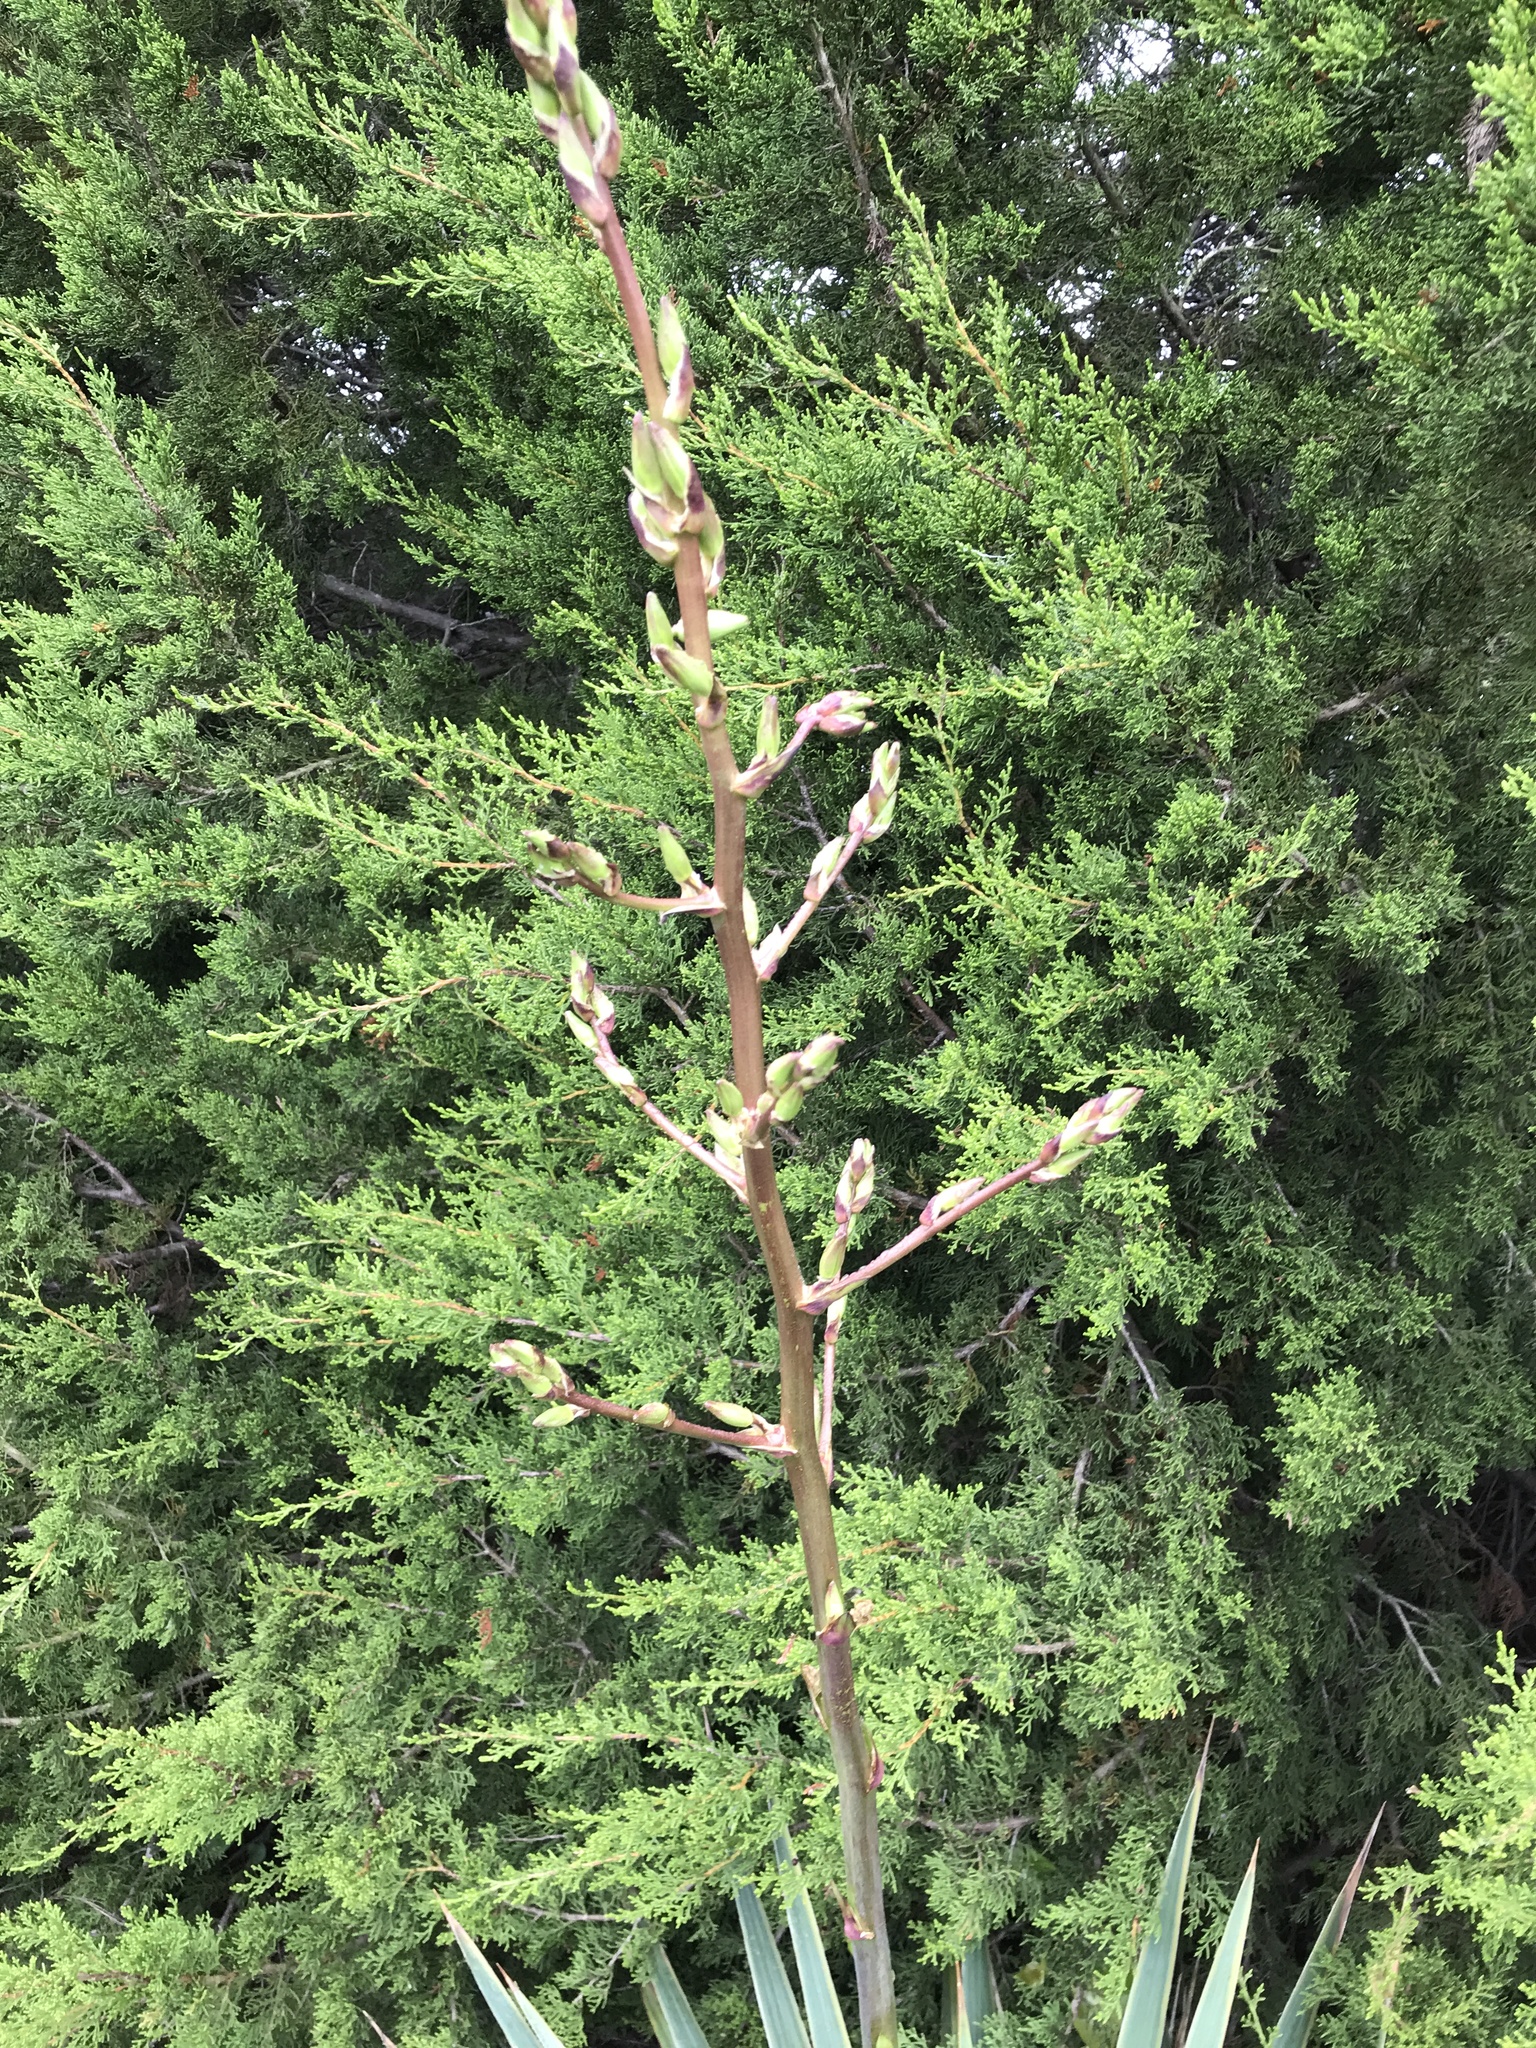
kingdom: Plantae
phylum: Tracheophyta
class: Liliopsida
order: Asparagales
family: Asparagaceae
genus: Yucca
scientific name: Yucca pallida
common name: Pale leaf yucca
